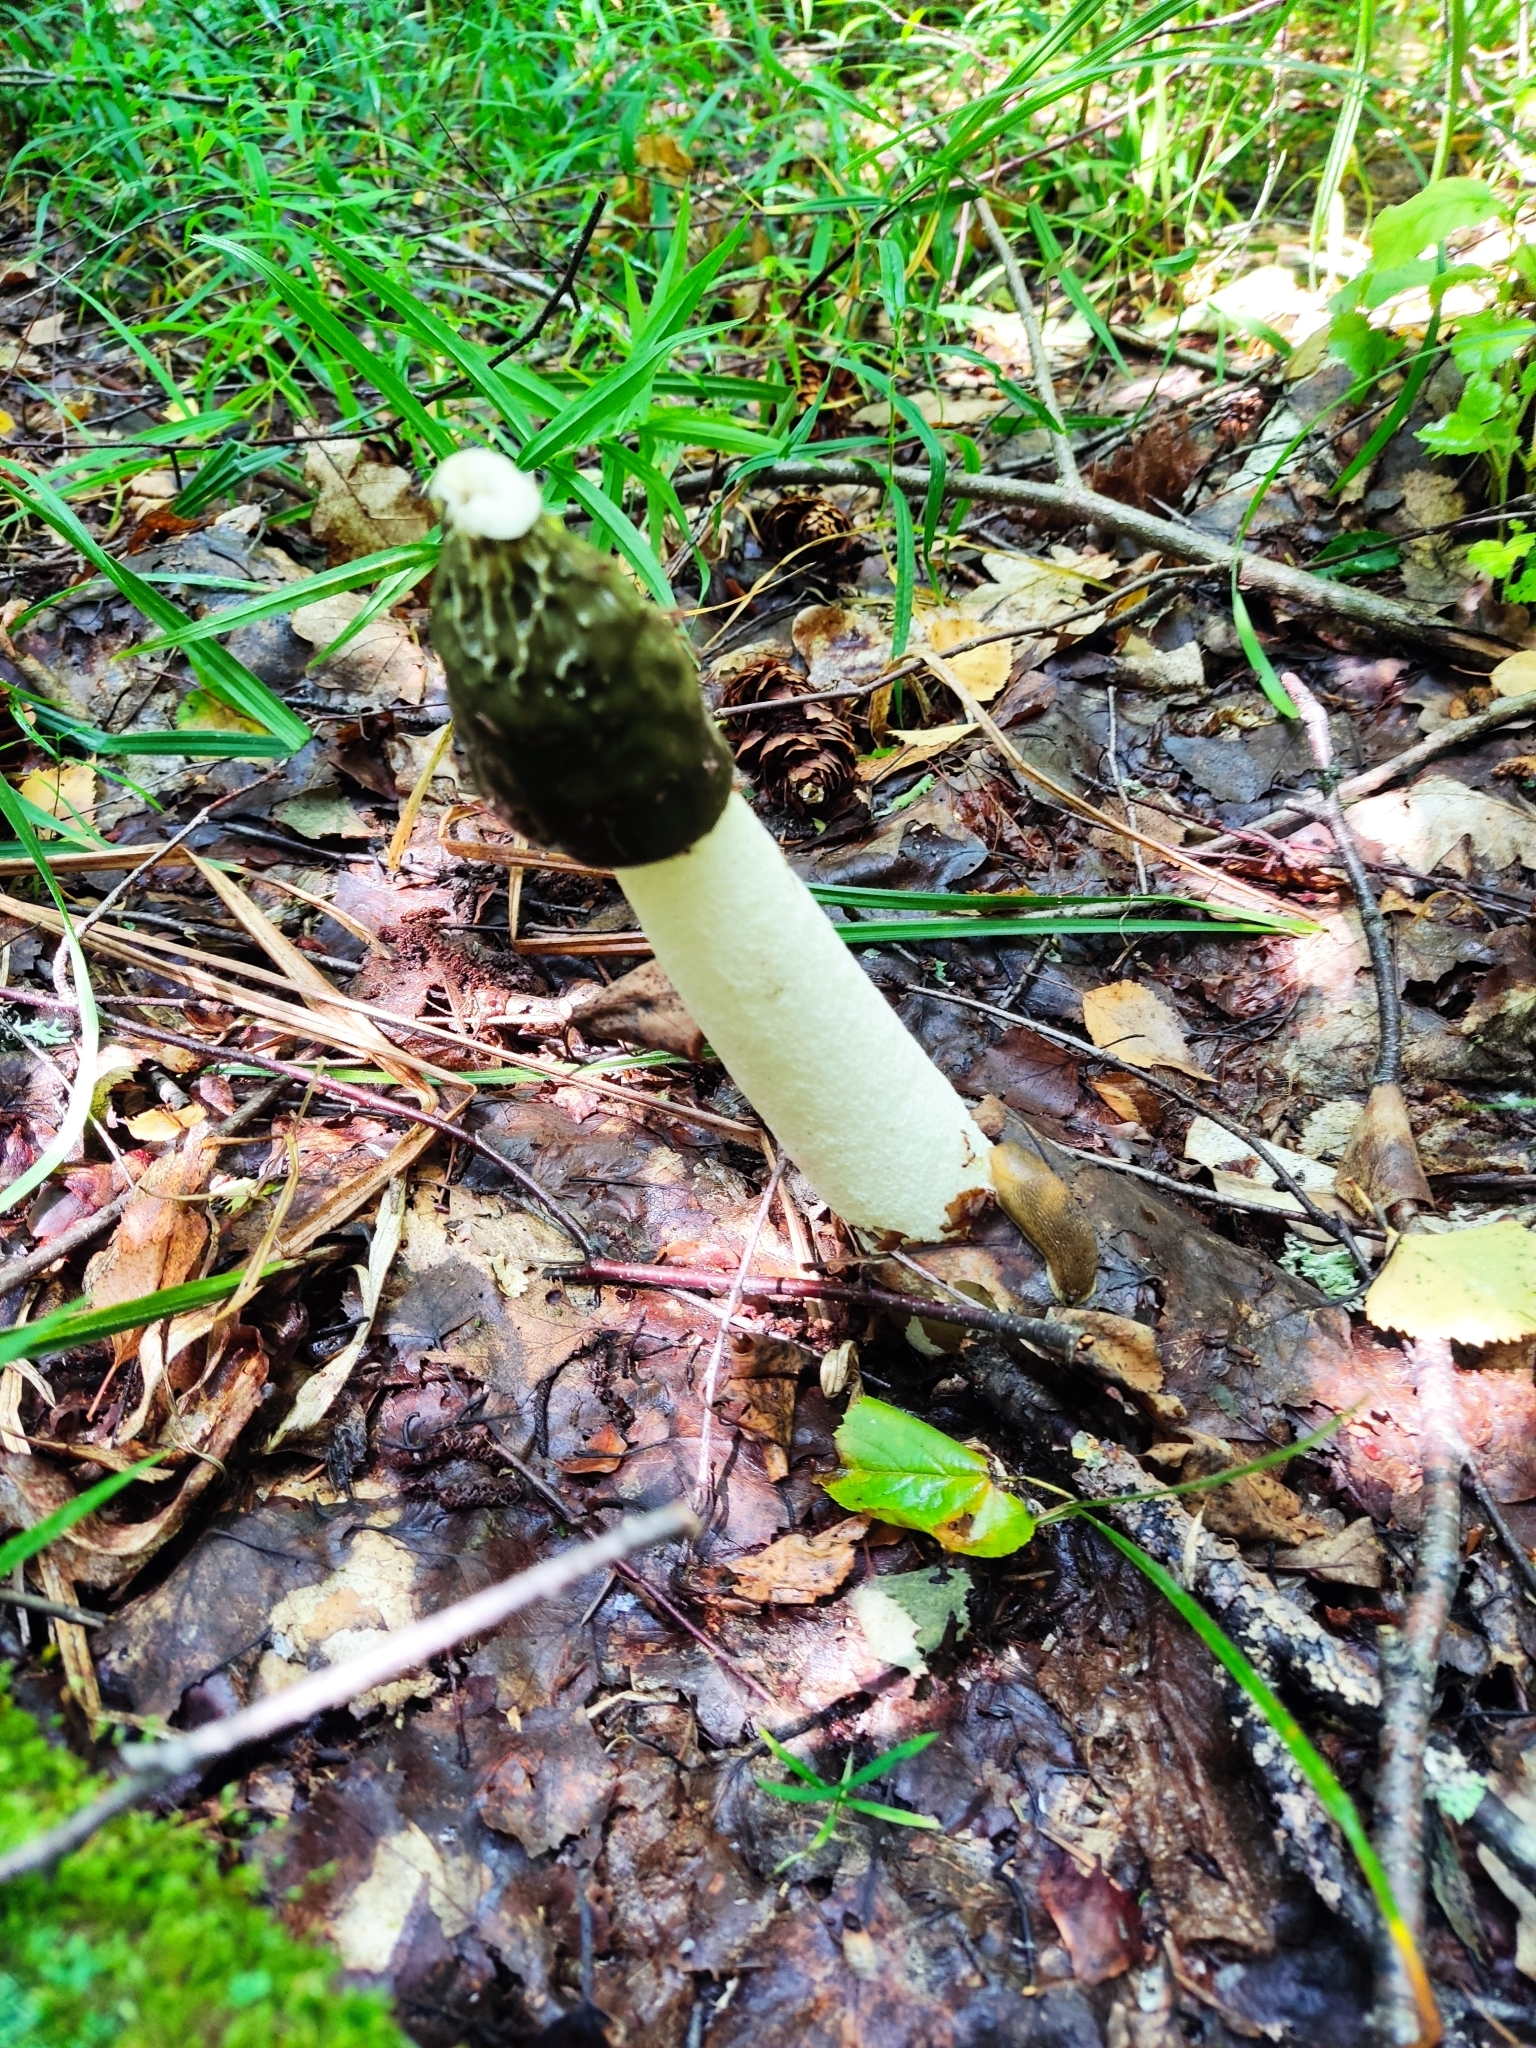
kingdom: Fungi
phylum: Basidiomycota
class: Agaricomycetes
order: Phallales
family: Phallaceae
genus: Phallus
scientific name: Phallus impudicus
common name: Common stinkhorn
